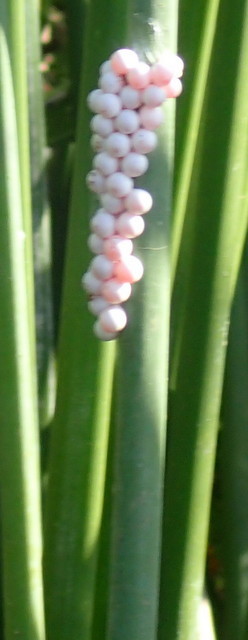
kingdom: Animalia
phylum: Mollusca
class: Gastropoda
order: Architaenioglossa
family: Ampullariidae
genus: Pomacea
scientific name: Pomacea paludosa
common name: Florida applesnail
